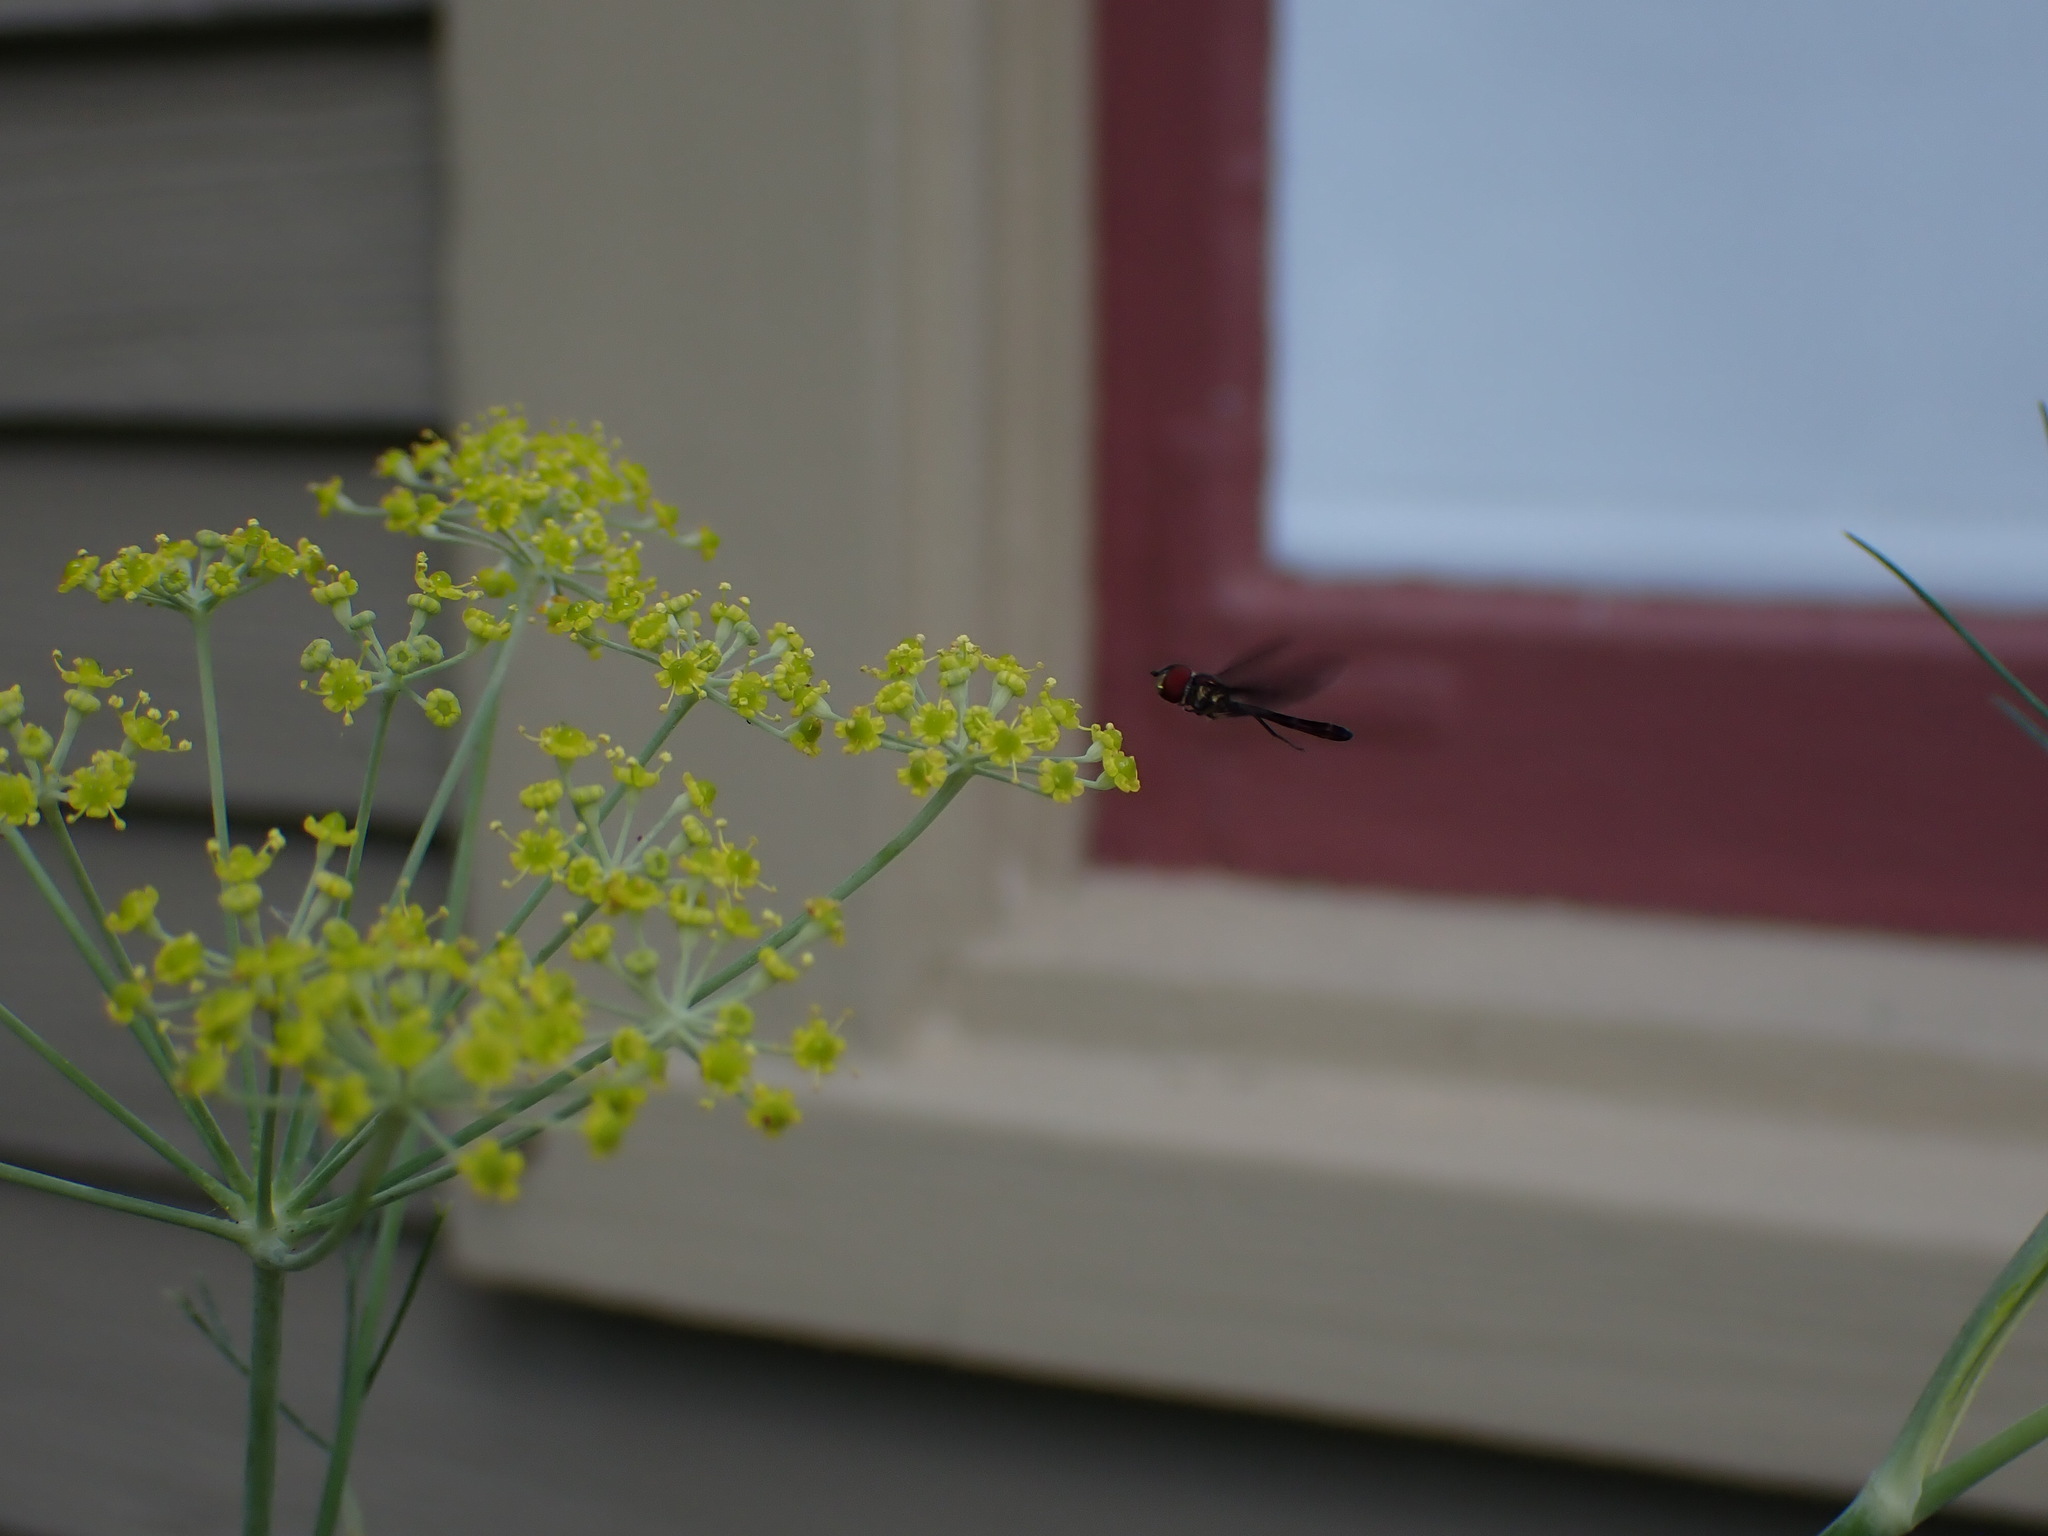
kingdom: Animalia
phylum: Arthropoda
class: Insecta
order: Diptera
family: Syrphidae
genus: Ocyptamus
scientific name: Ocyptamus fuscipennis
